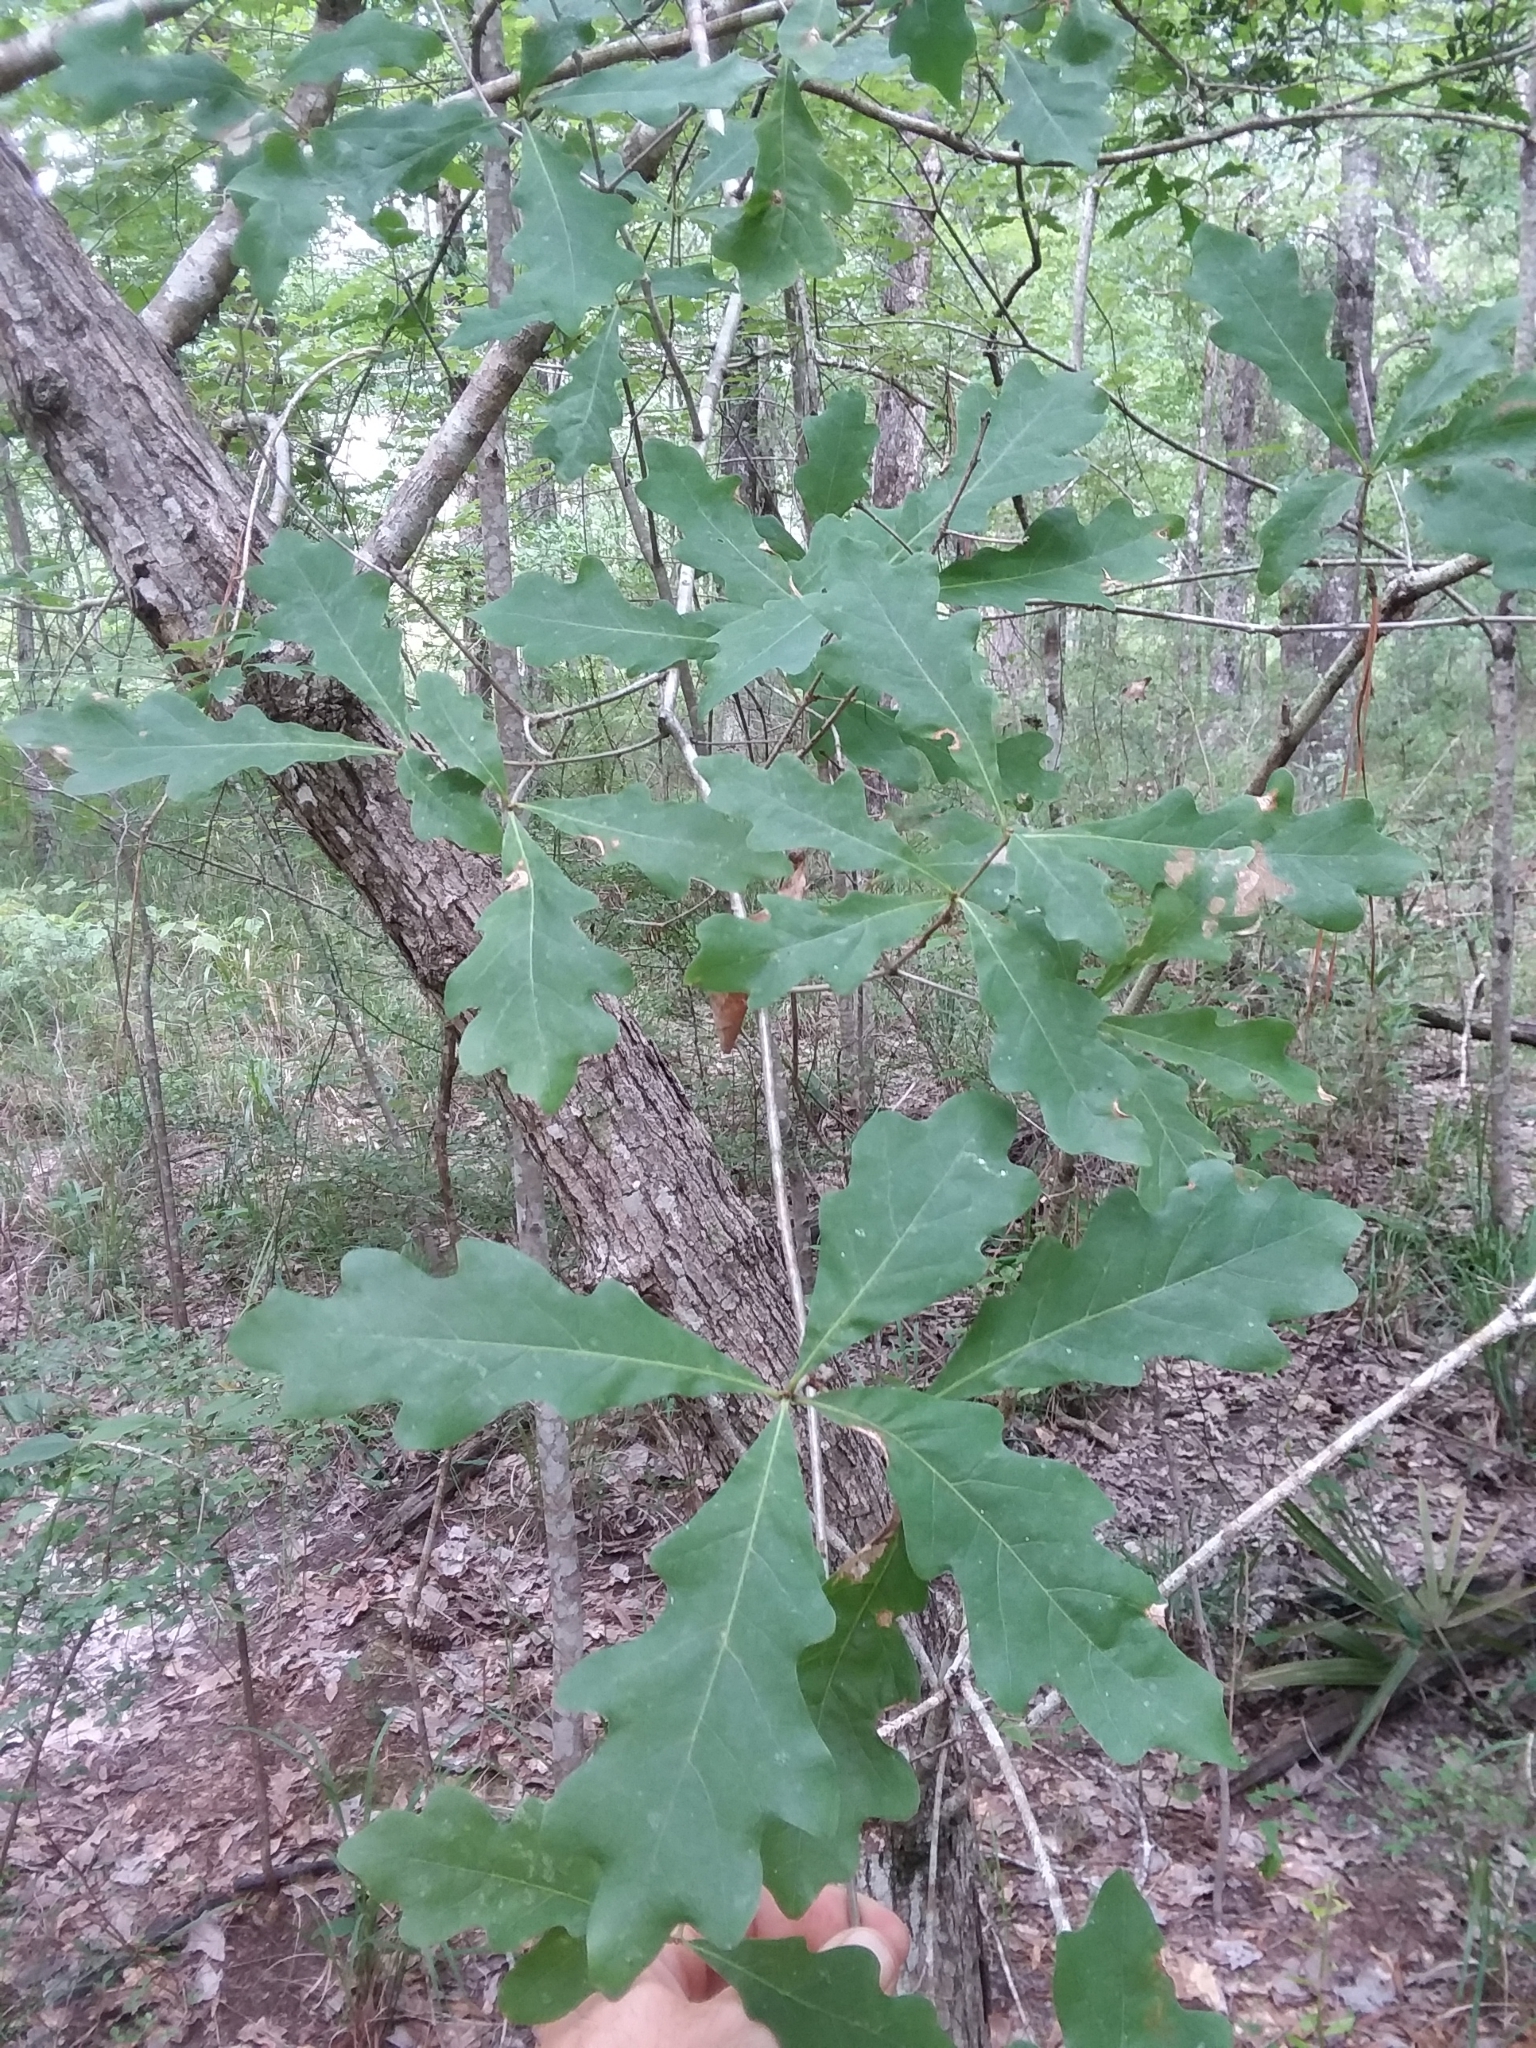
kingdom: Plantae
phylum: Tracheophyta
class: Magnoliopsida
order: Fagales
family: Fagaceae
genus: Quercus
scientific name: Quercus alba
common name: White oak
